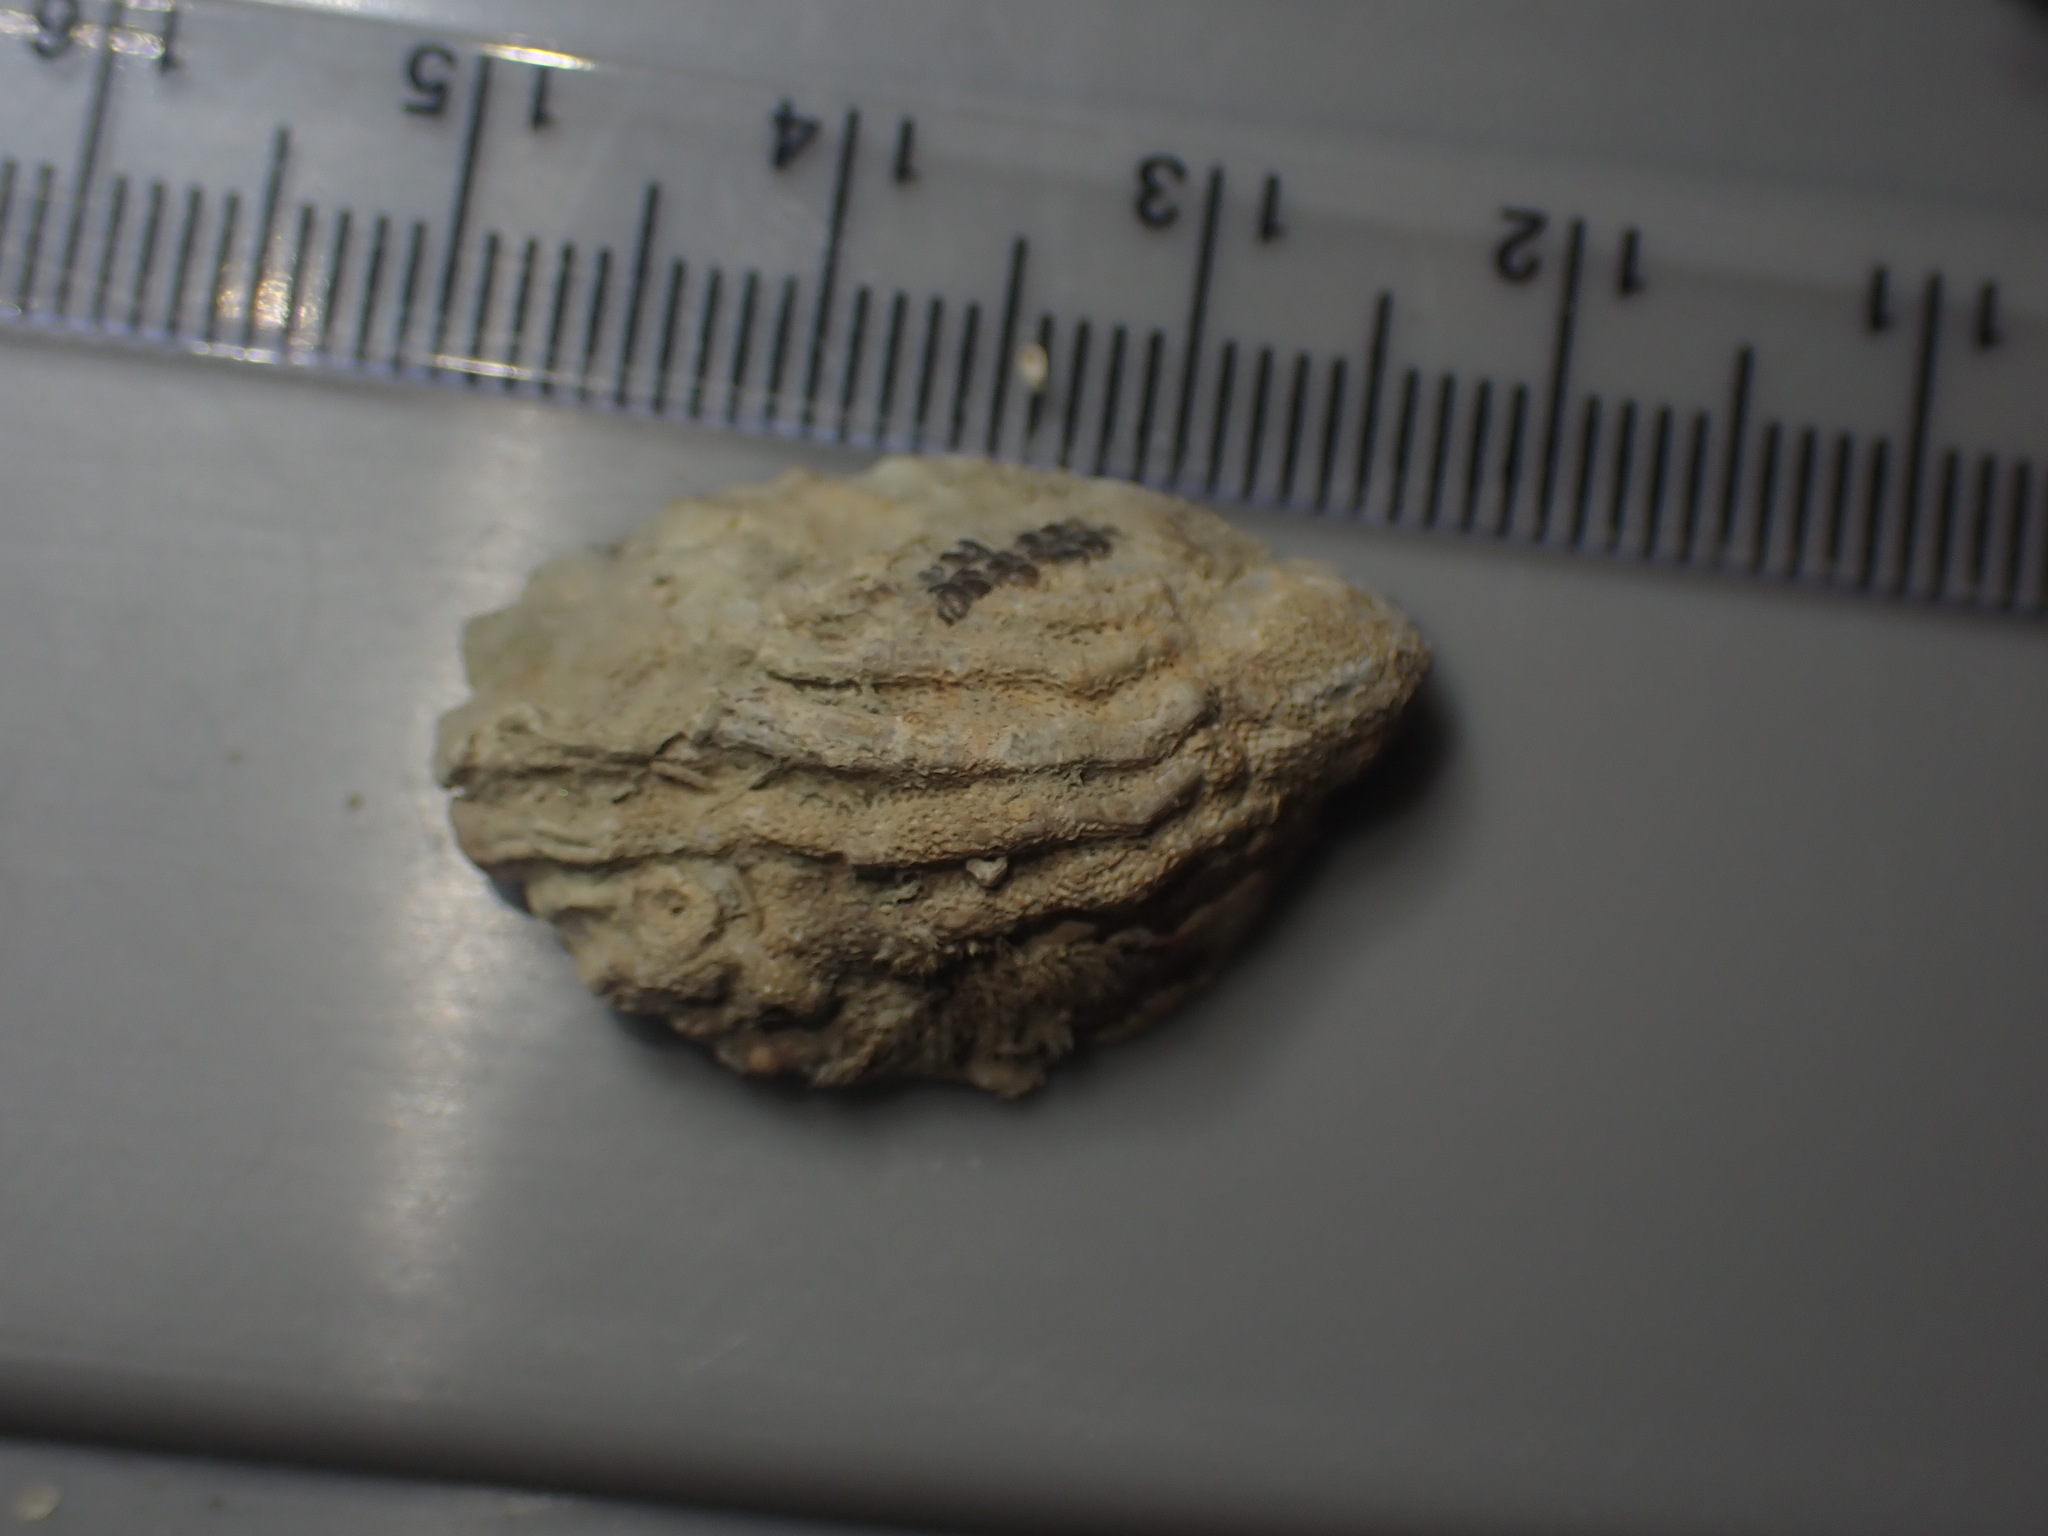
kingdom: Animalia
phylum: Mollusca
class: Gastropoda
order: Littorinimorpha
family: Calyptraeidae
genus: Maoricrypta
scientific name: Maoricrypta costata
